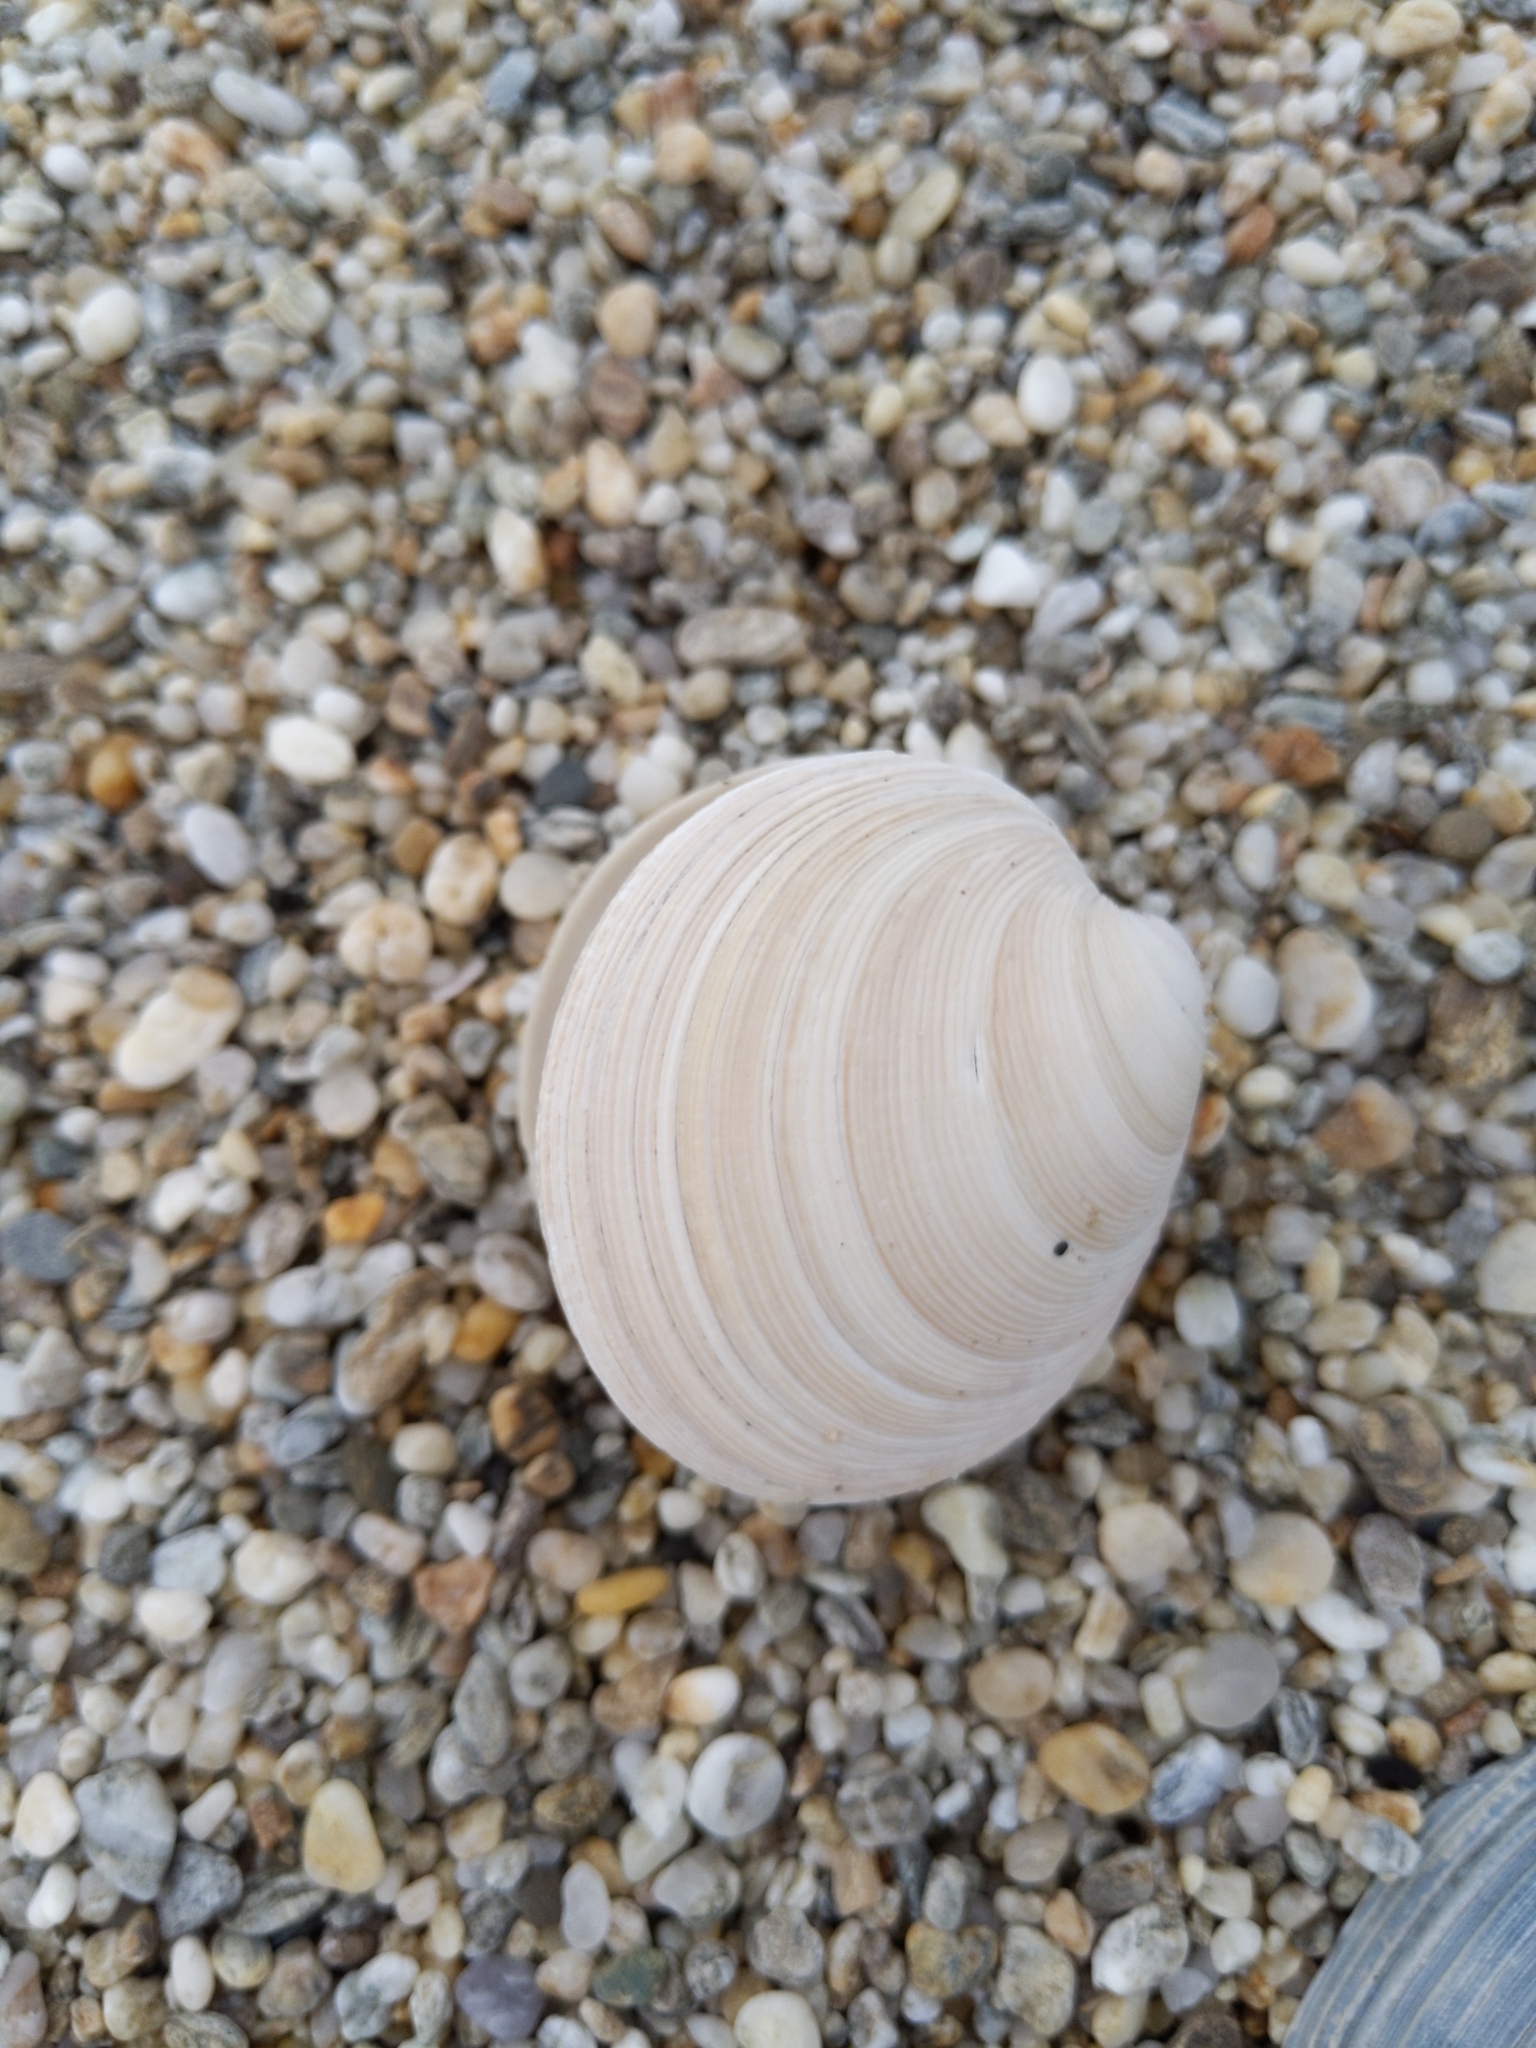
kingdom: Animalia
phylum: Mollusca
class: Bivalvia
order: Venerida
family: Veneridae
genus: Dosinia
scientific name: Dosinia anus
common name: Old-woman dosinia
